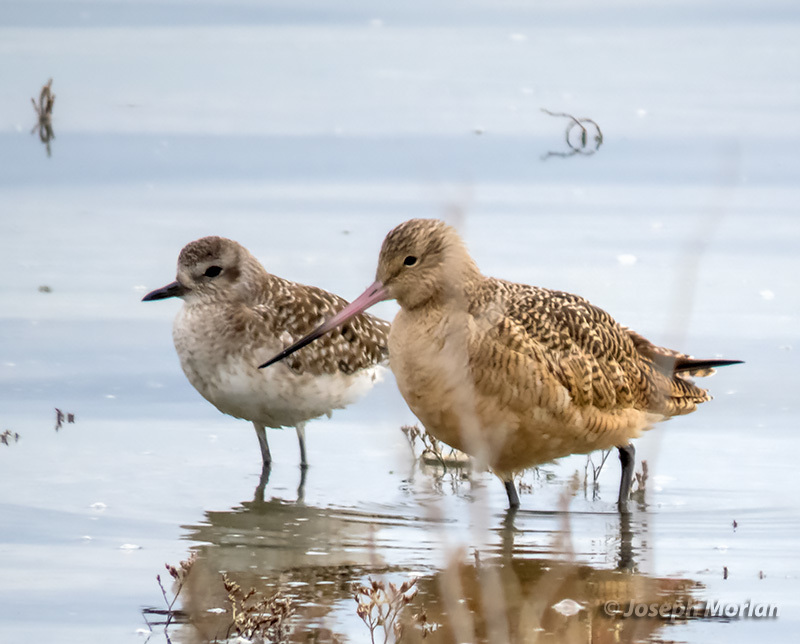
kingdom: Animalia
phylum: Chordata
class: Aves
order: Charadriiformes
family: Scolopacidae
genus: Limosa
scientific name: Limosa fedoa
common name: Marbled godwit
